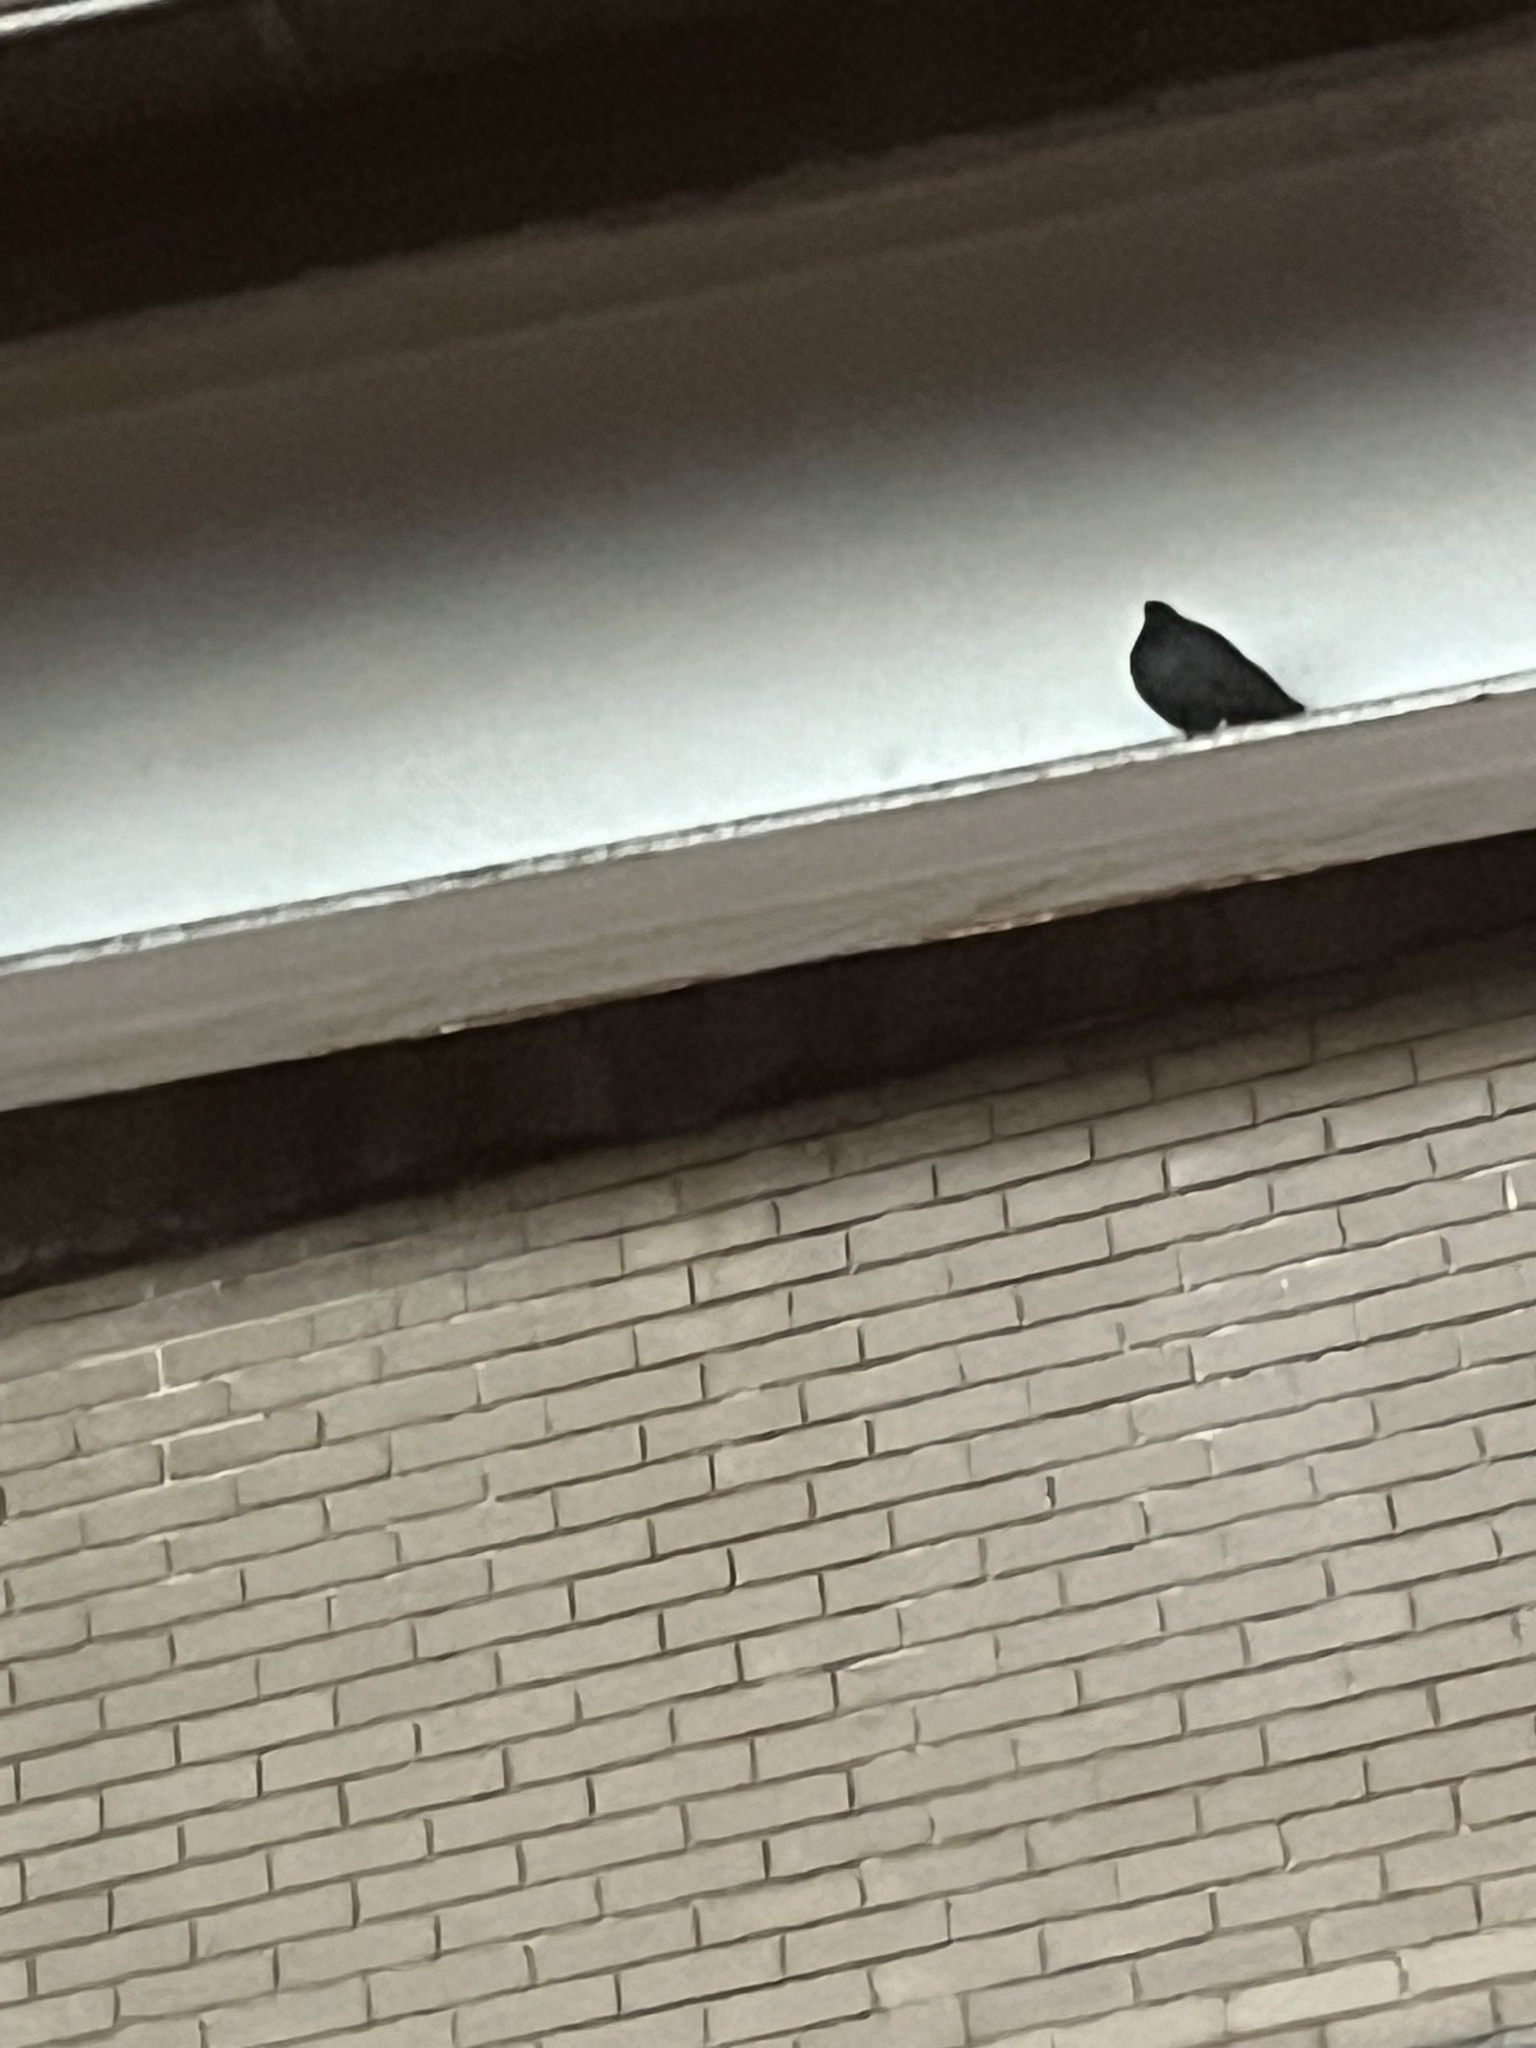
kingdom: Animalia
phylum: Chordata
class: Aves
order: Columbiformes
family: Columbidae
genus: Columba
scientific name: Columba livia
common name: Rock pigeon
